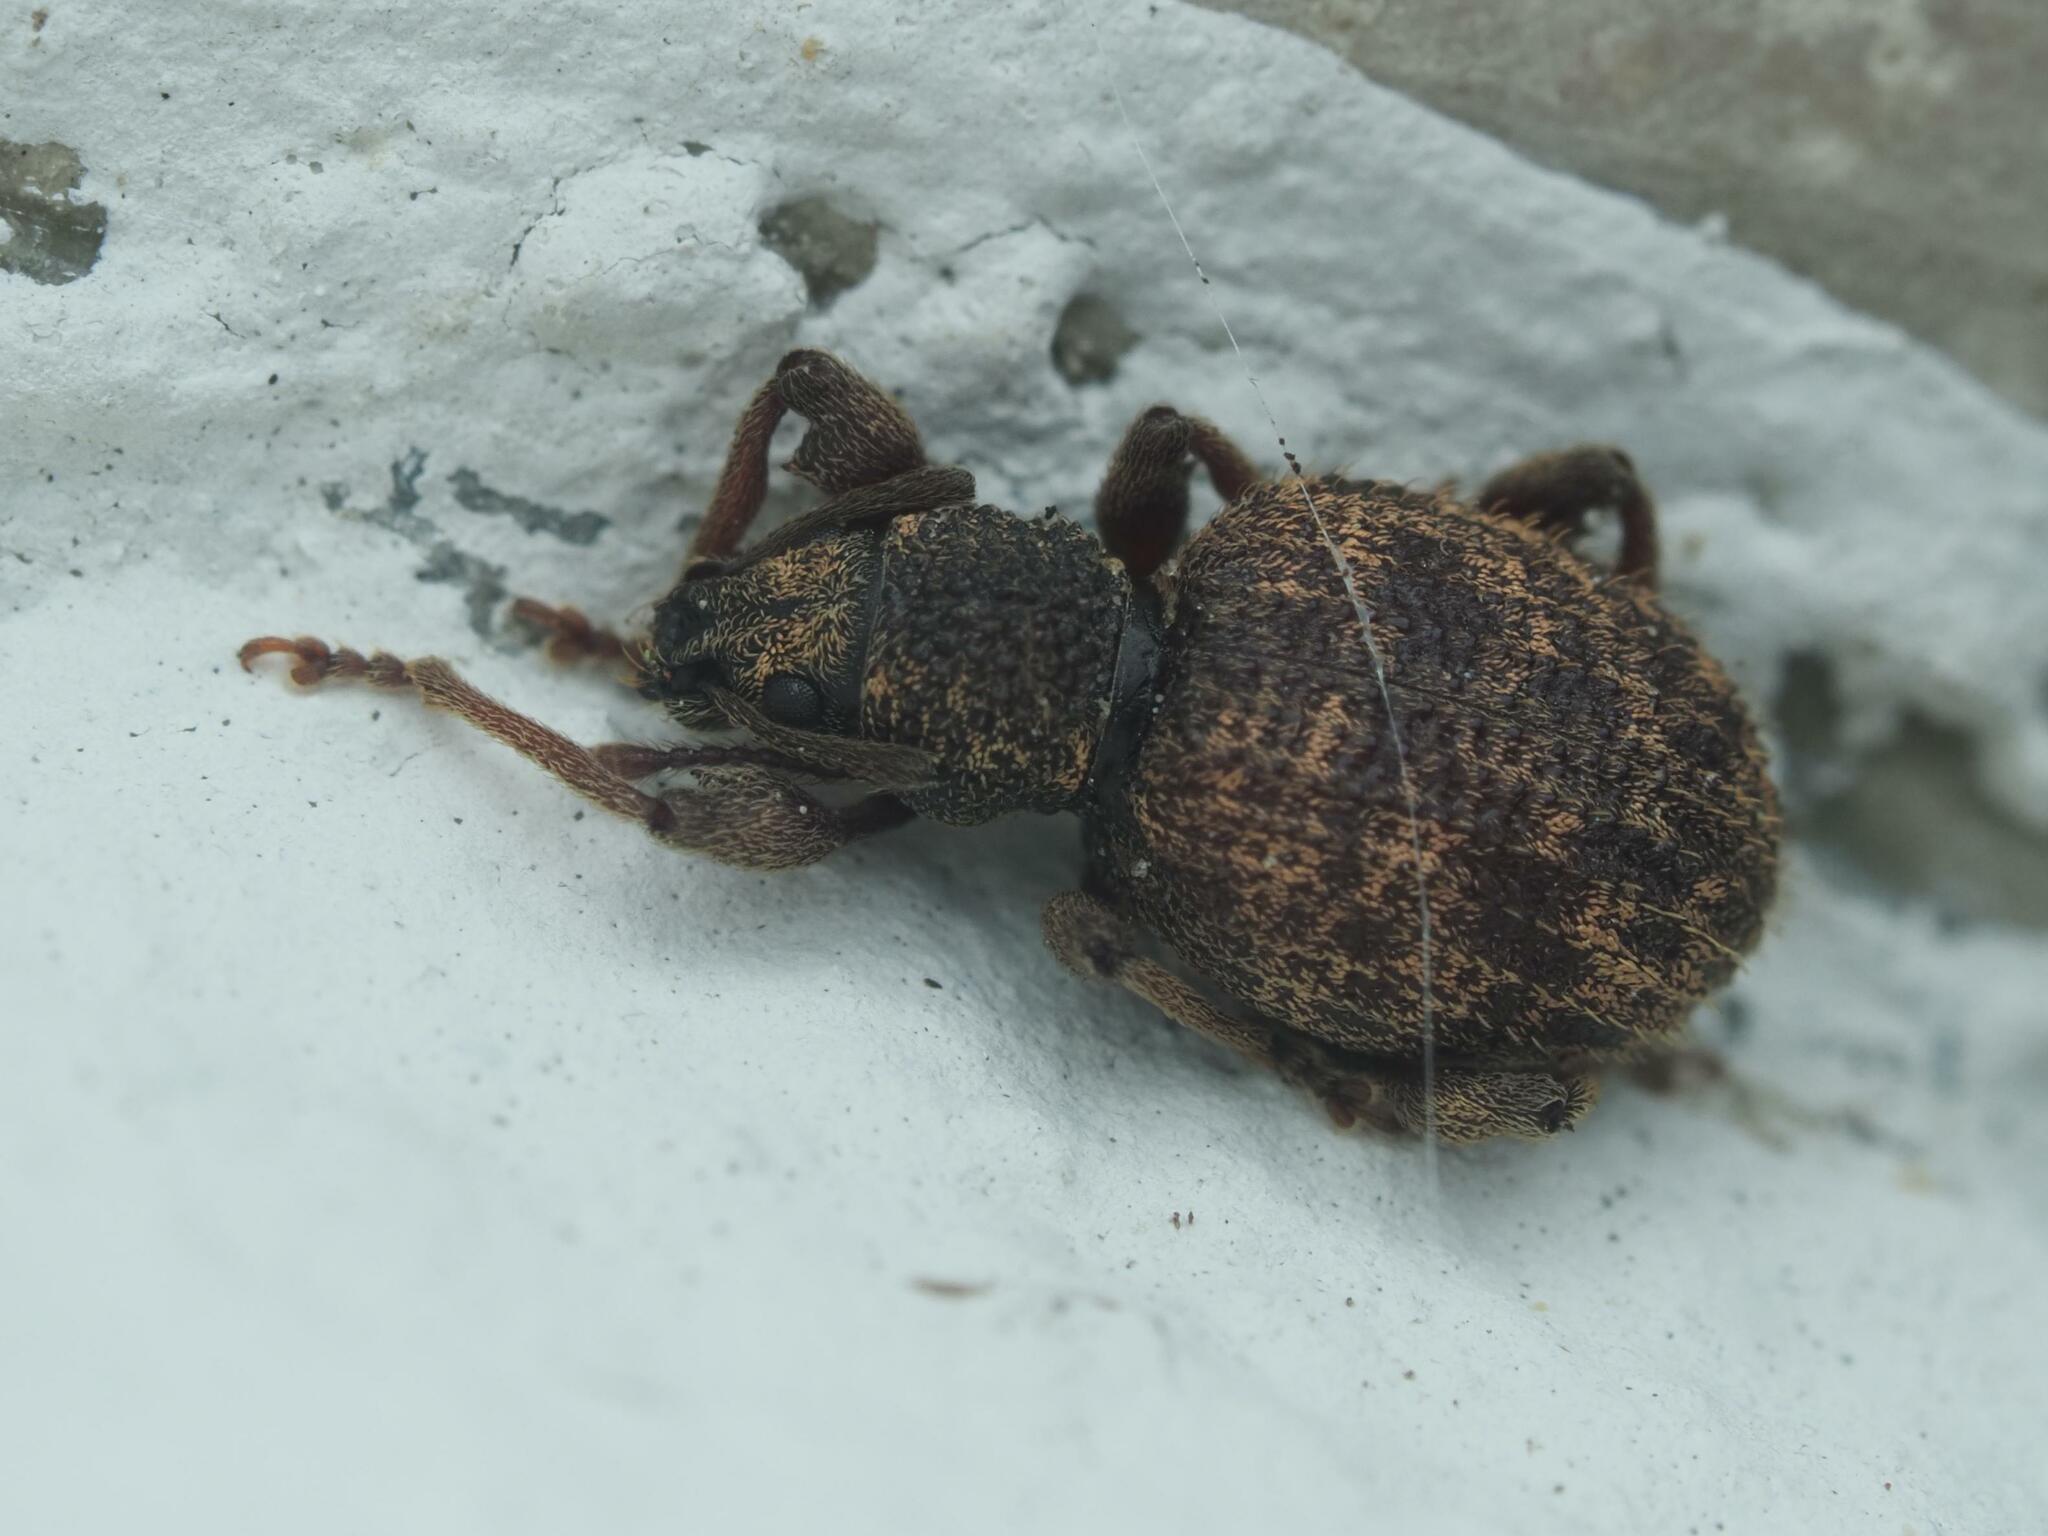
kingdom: Animalia
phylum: Arthropoda
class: Insecta
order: Coleoptera
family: Curculionidae
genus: Otiorhynchus
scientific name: Otiorhynchus crataegi
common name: Privet weevil
